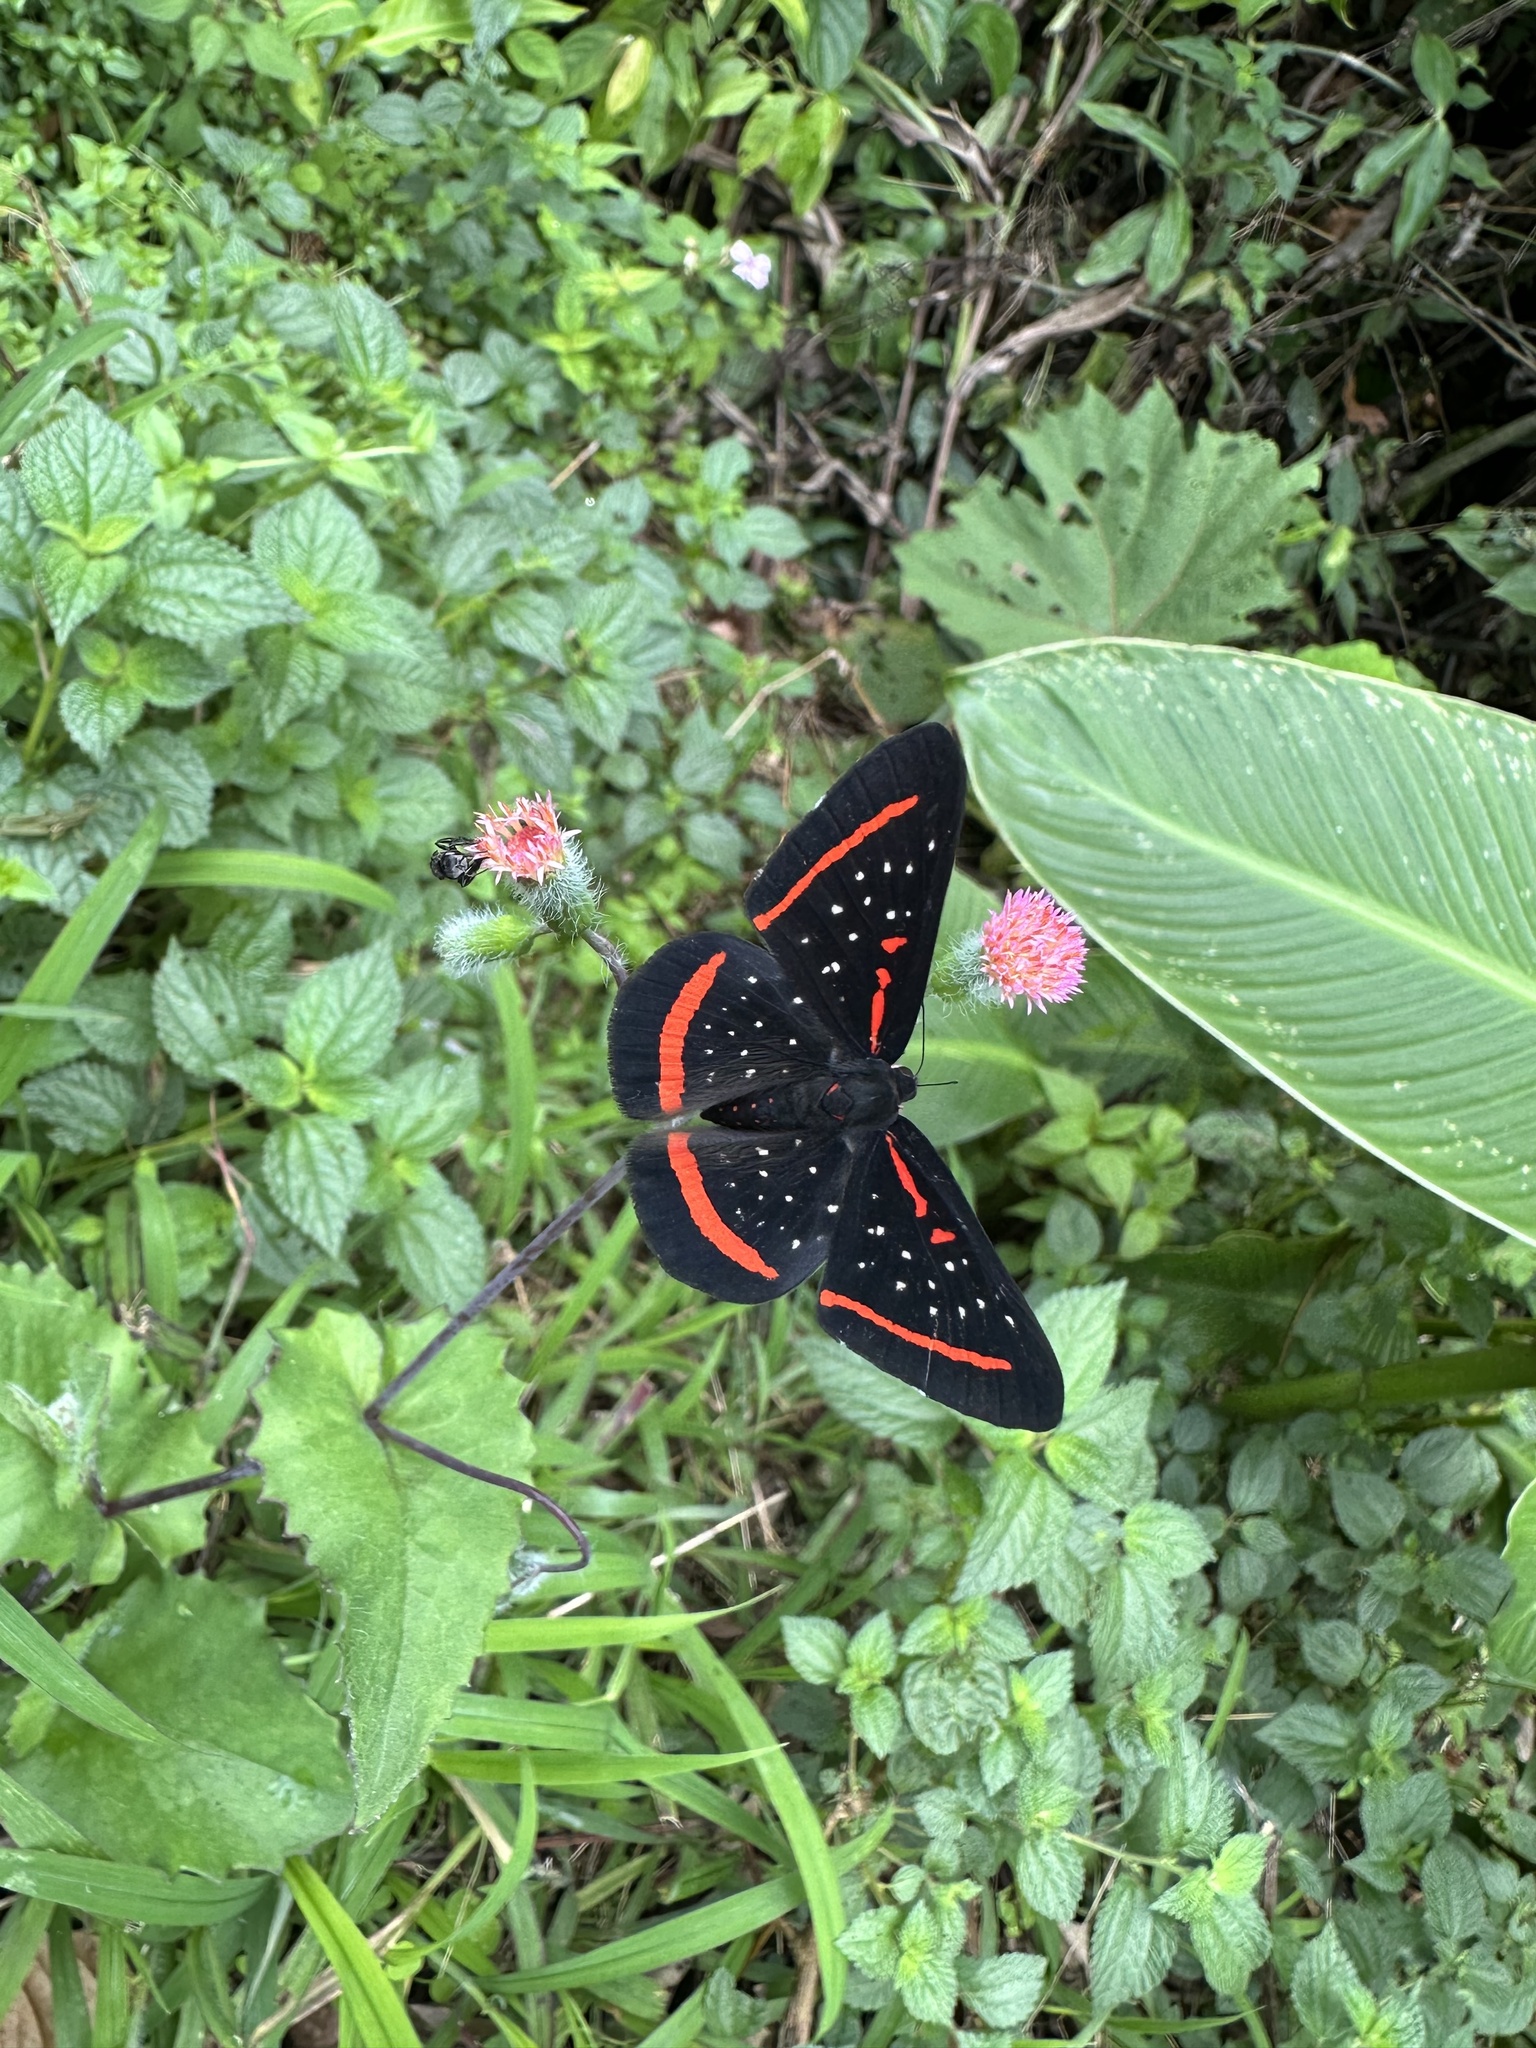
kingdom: Animalia
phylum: Arthropoda
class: Insecta
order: Lepidoptera
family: Riodinidae
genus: Amarynthis
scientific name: Amarynthis meneria
